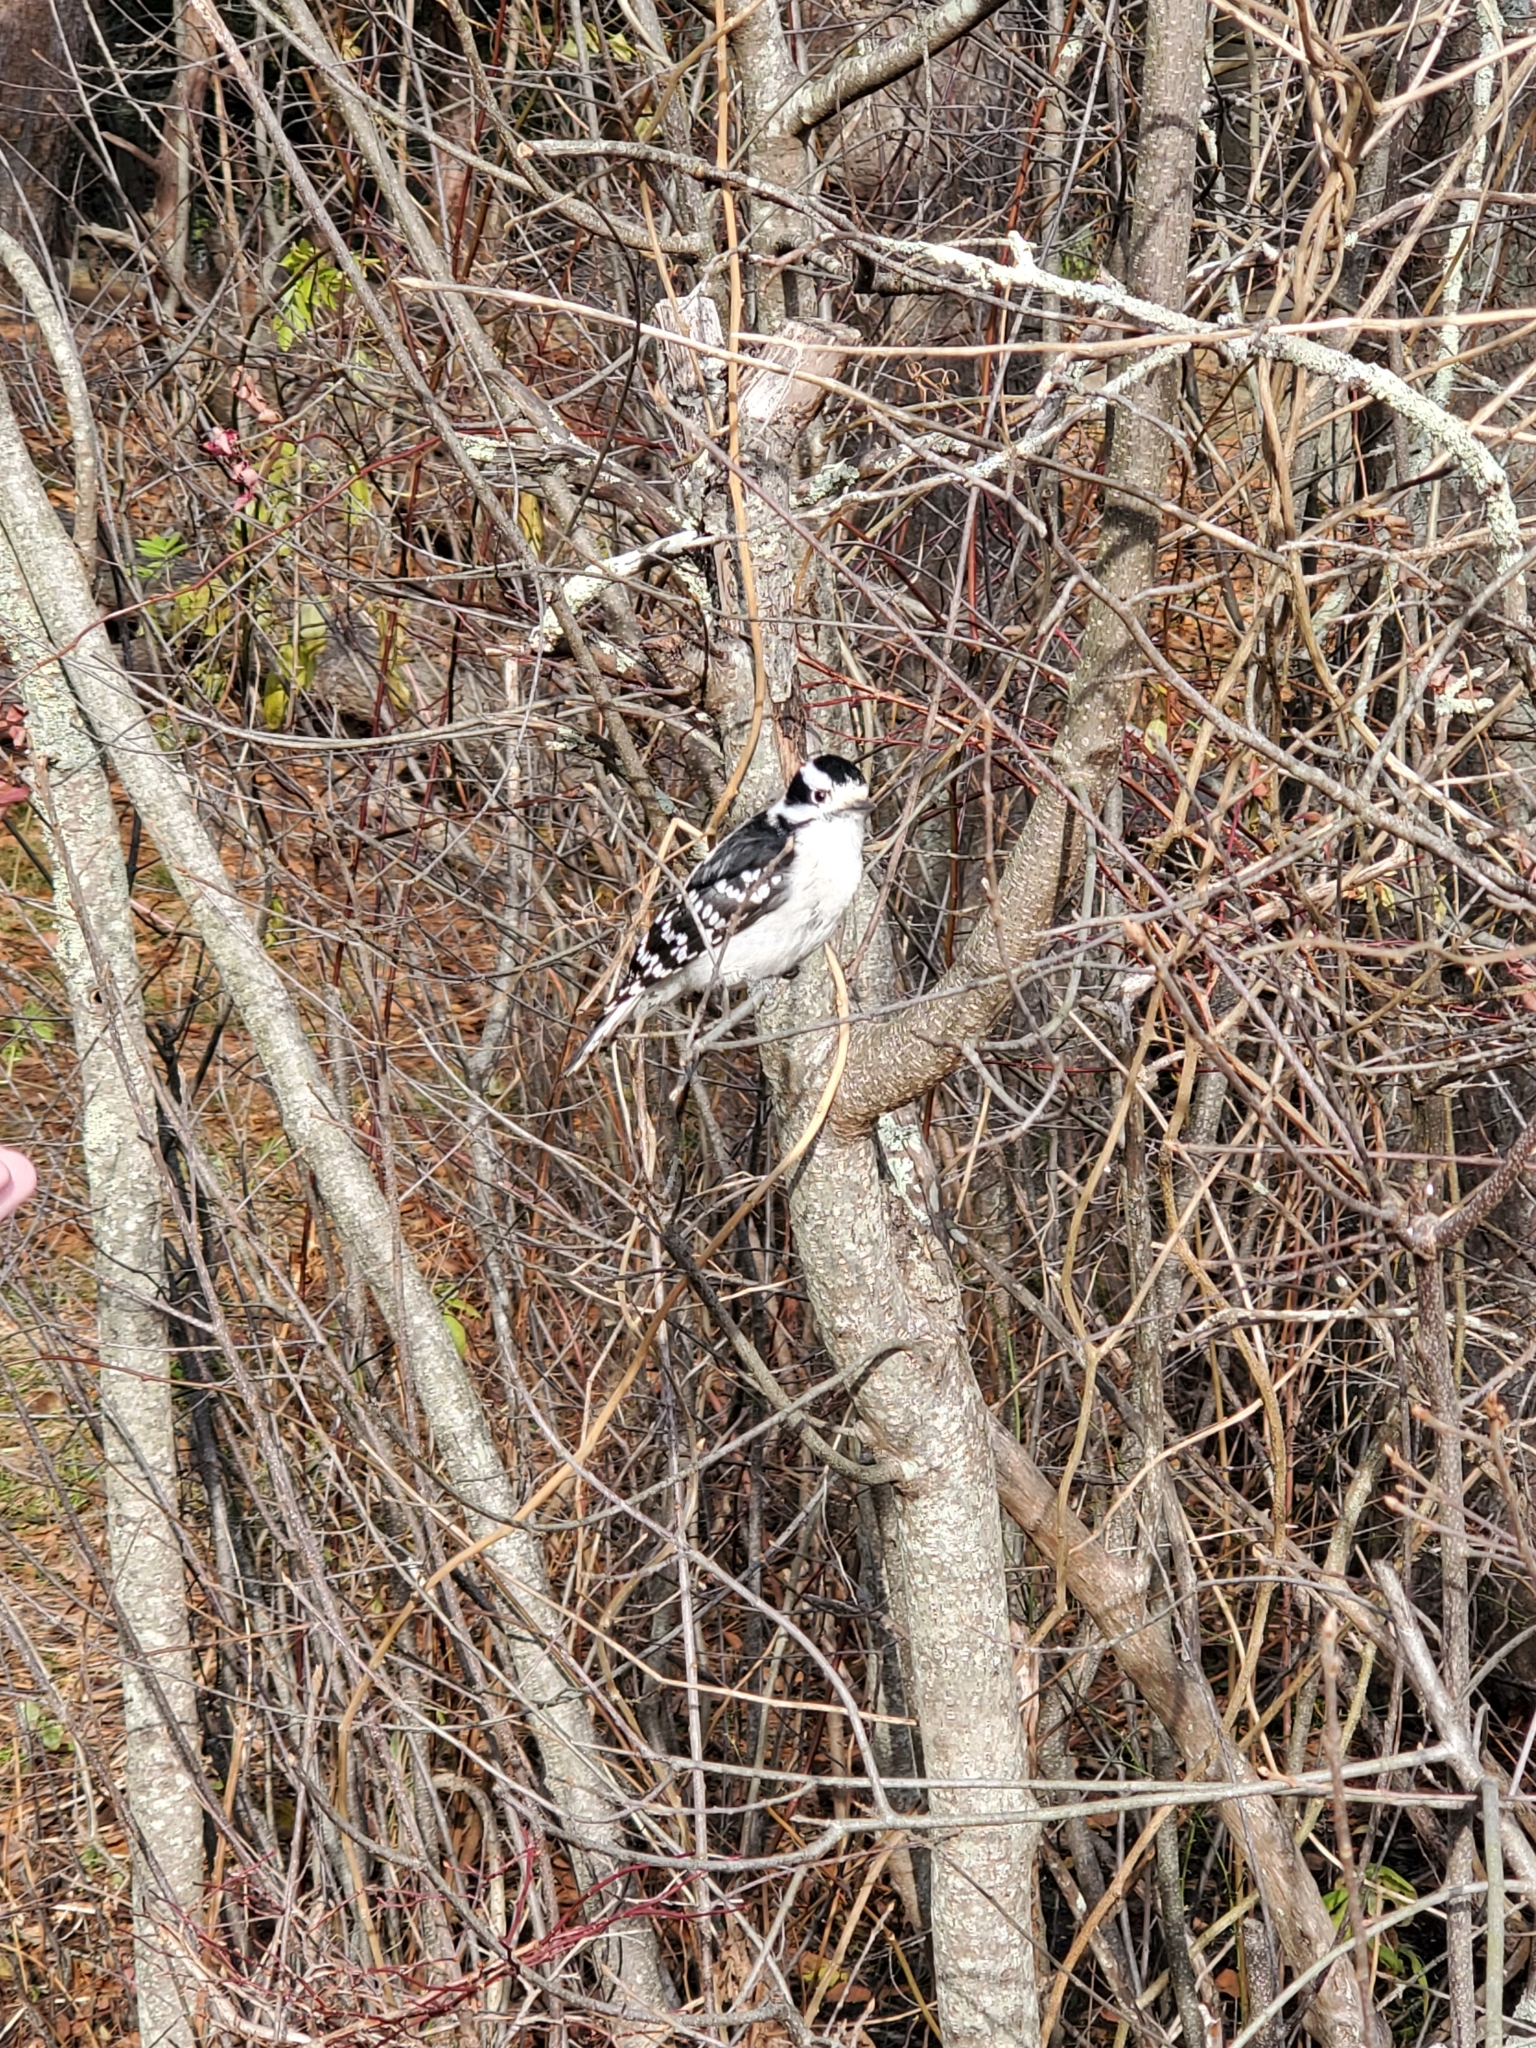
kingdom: Animalia
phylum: Chordata
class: Aves
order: Piciformes
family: Picidae
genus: Dryobates
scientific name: Dryobates pubescens
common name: Downy woodpecker
